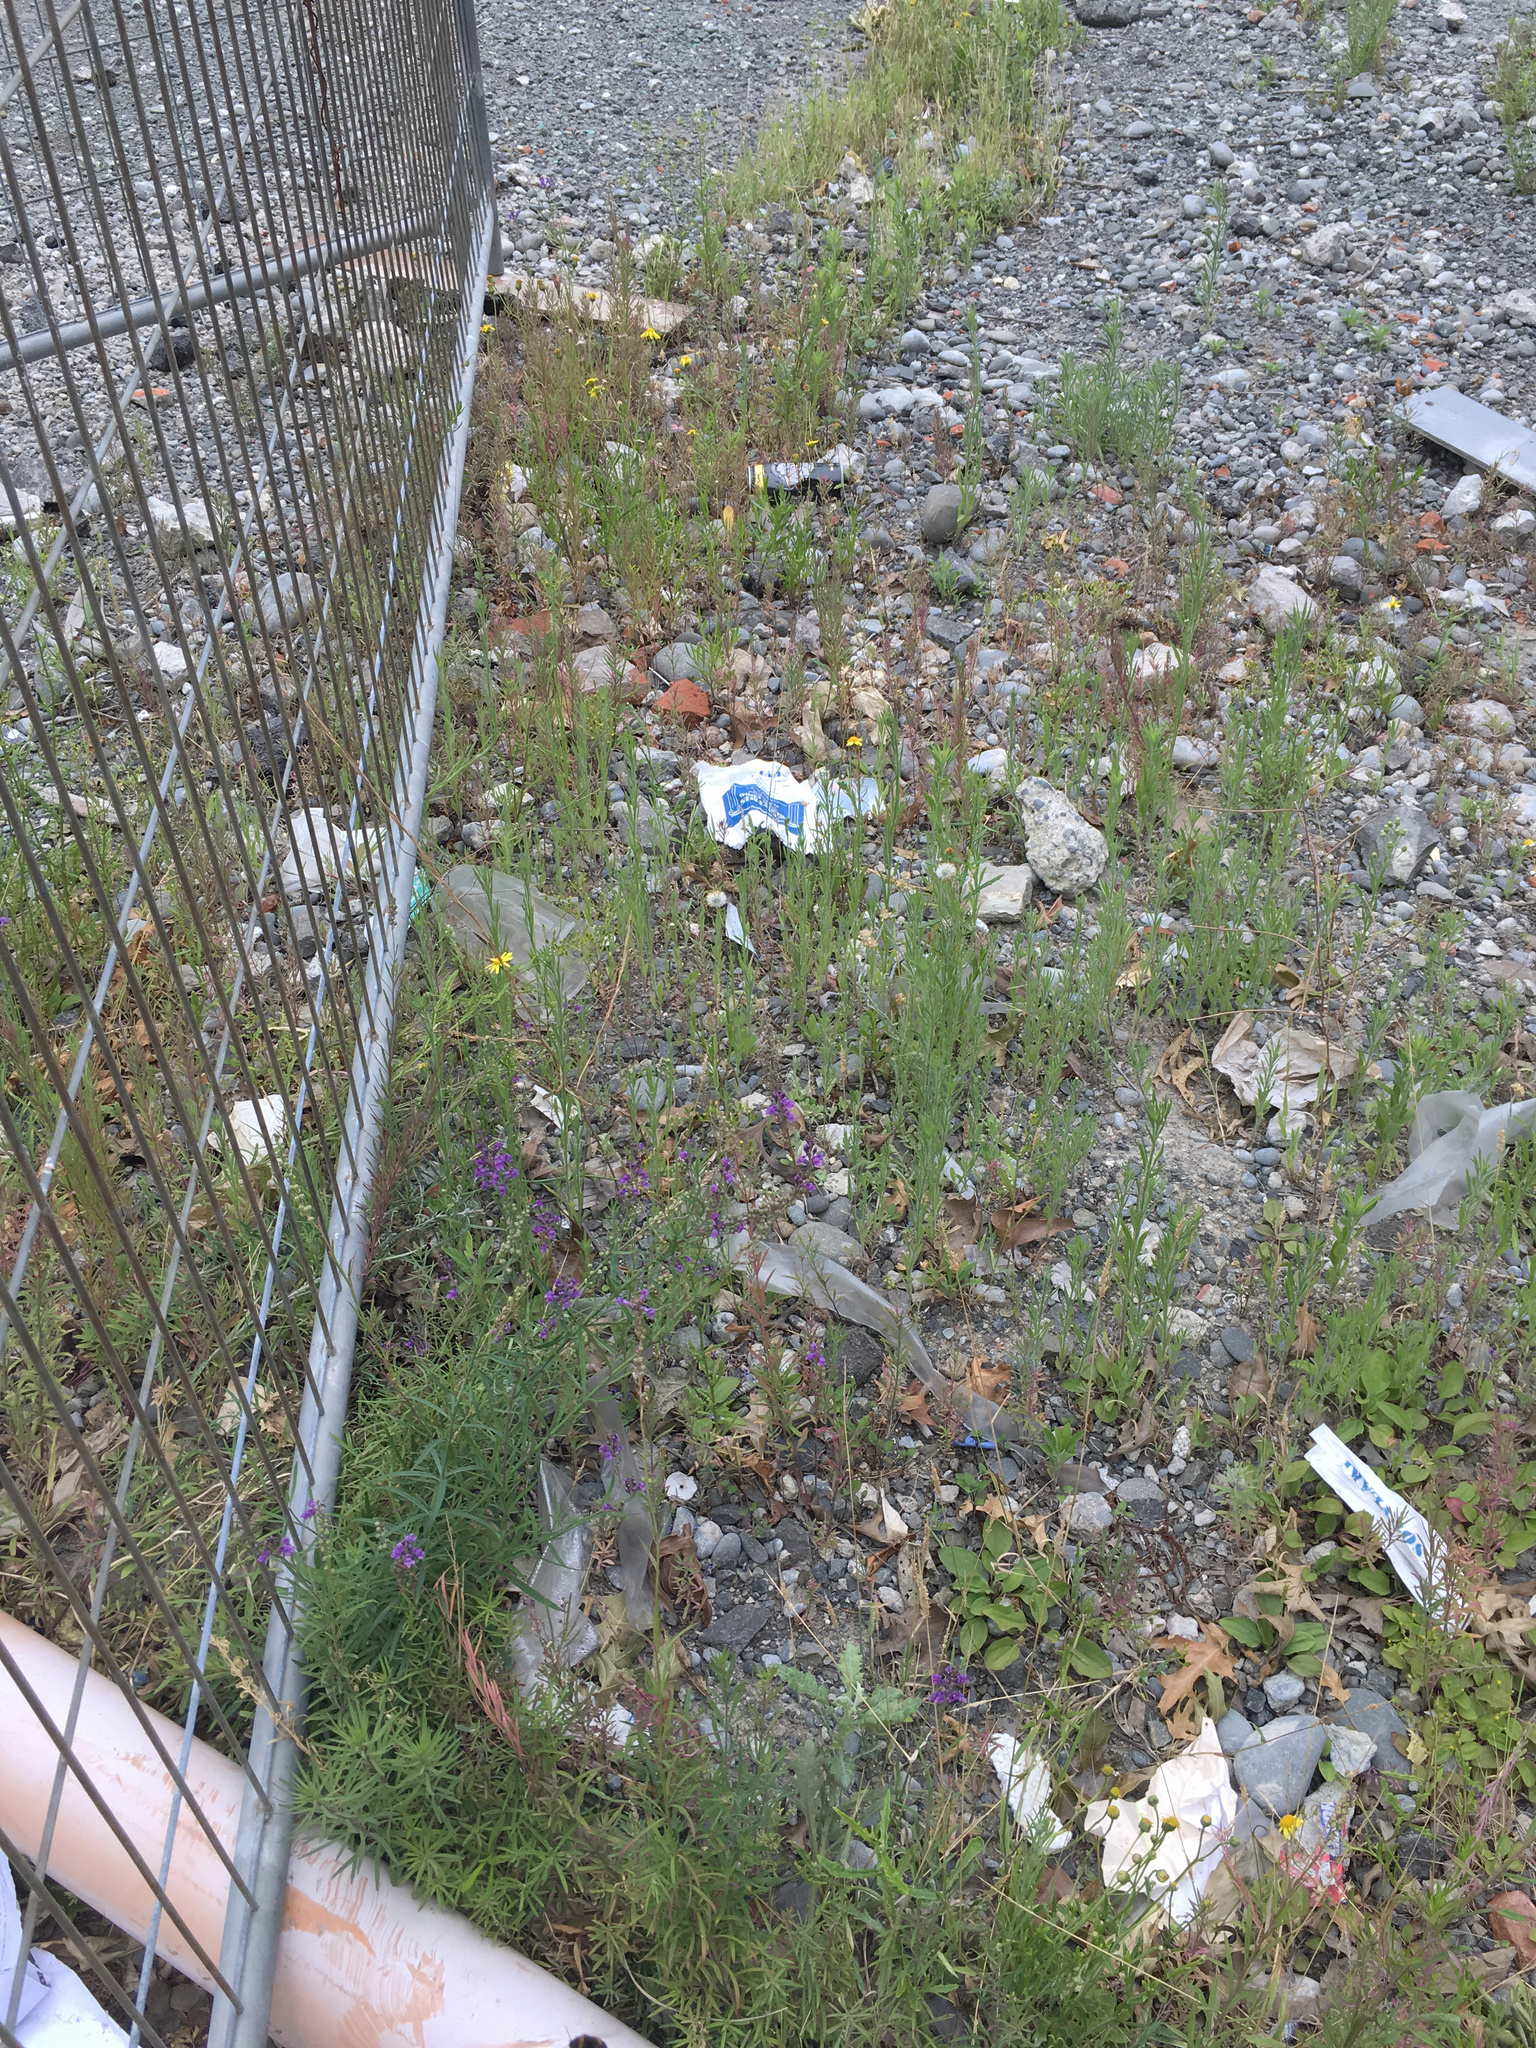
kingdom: Plantae
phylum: Tracheophyta
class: Magnoliopsida
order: Asterales
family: Asteraceae
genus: Senecio
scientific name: Senecio skirrhodon
